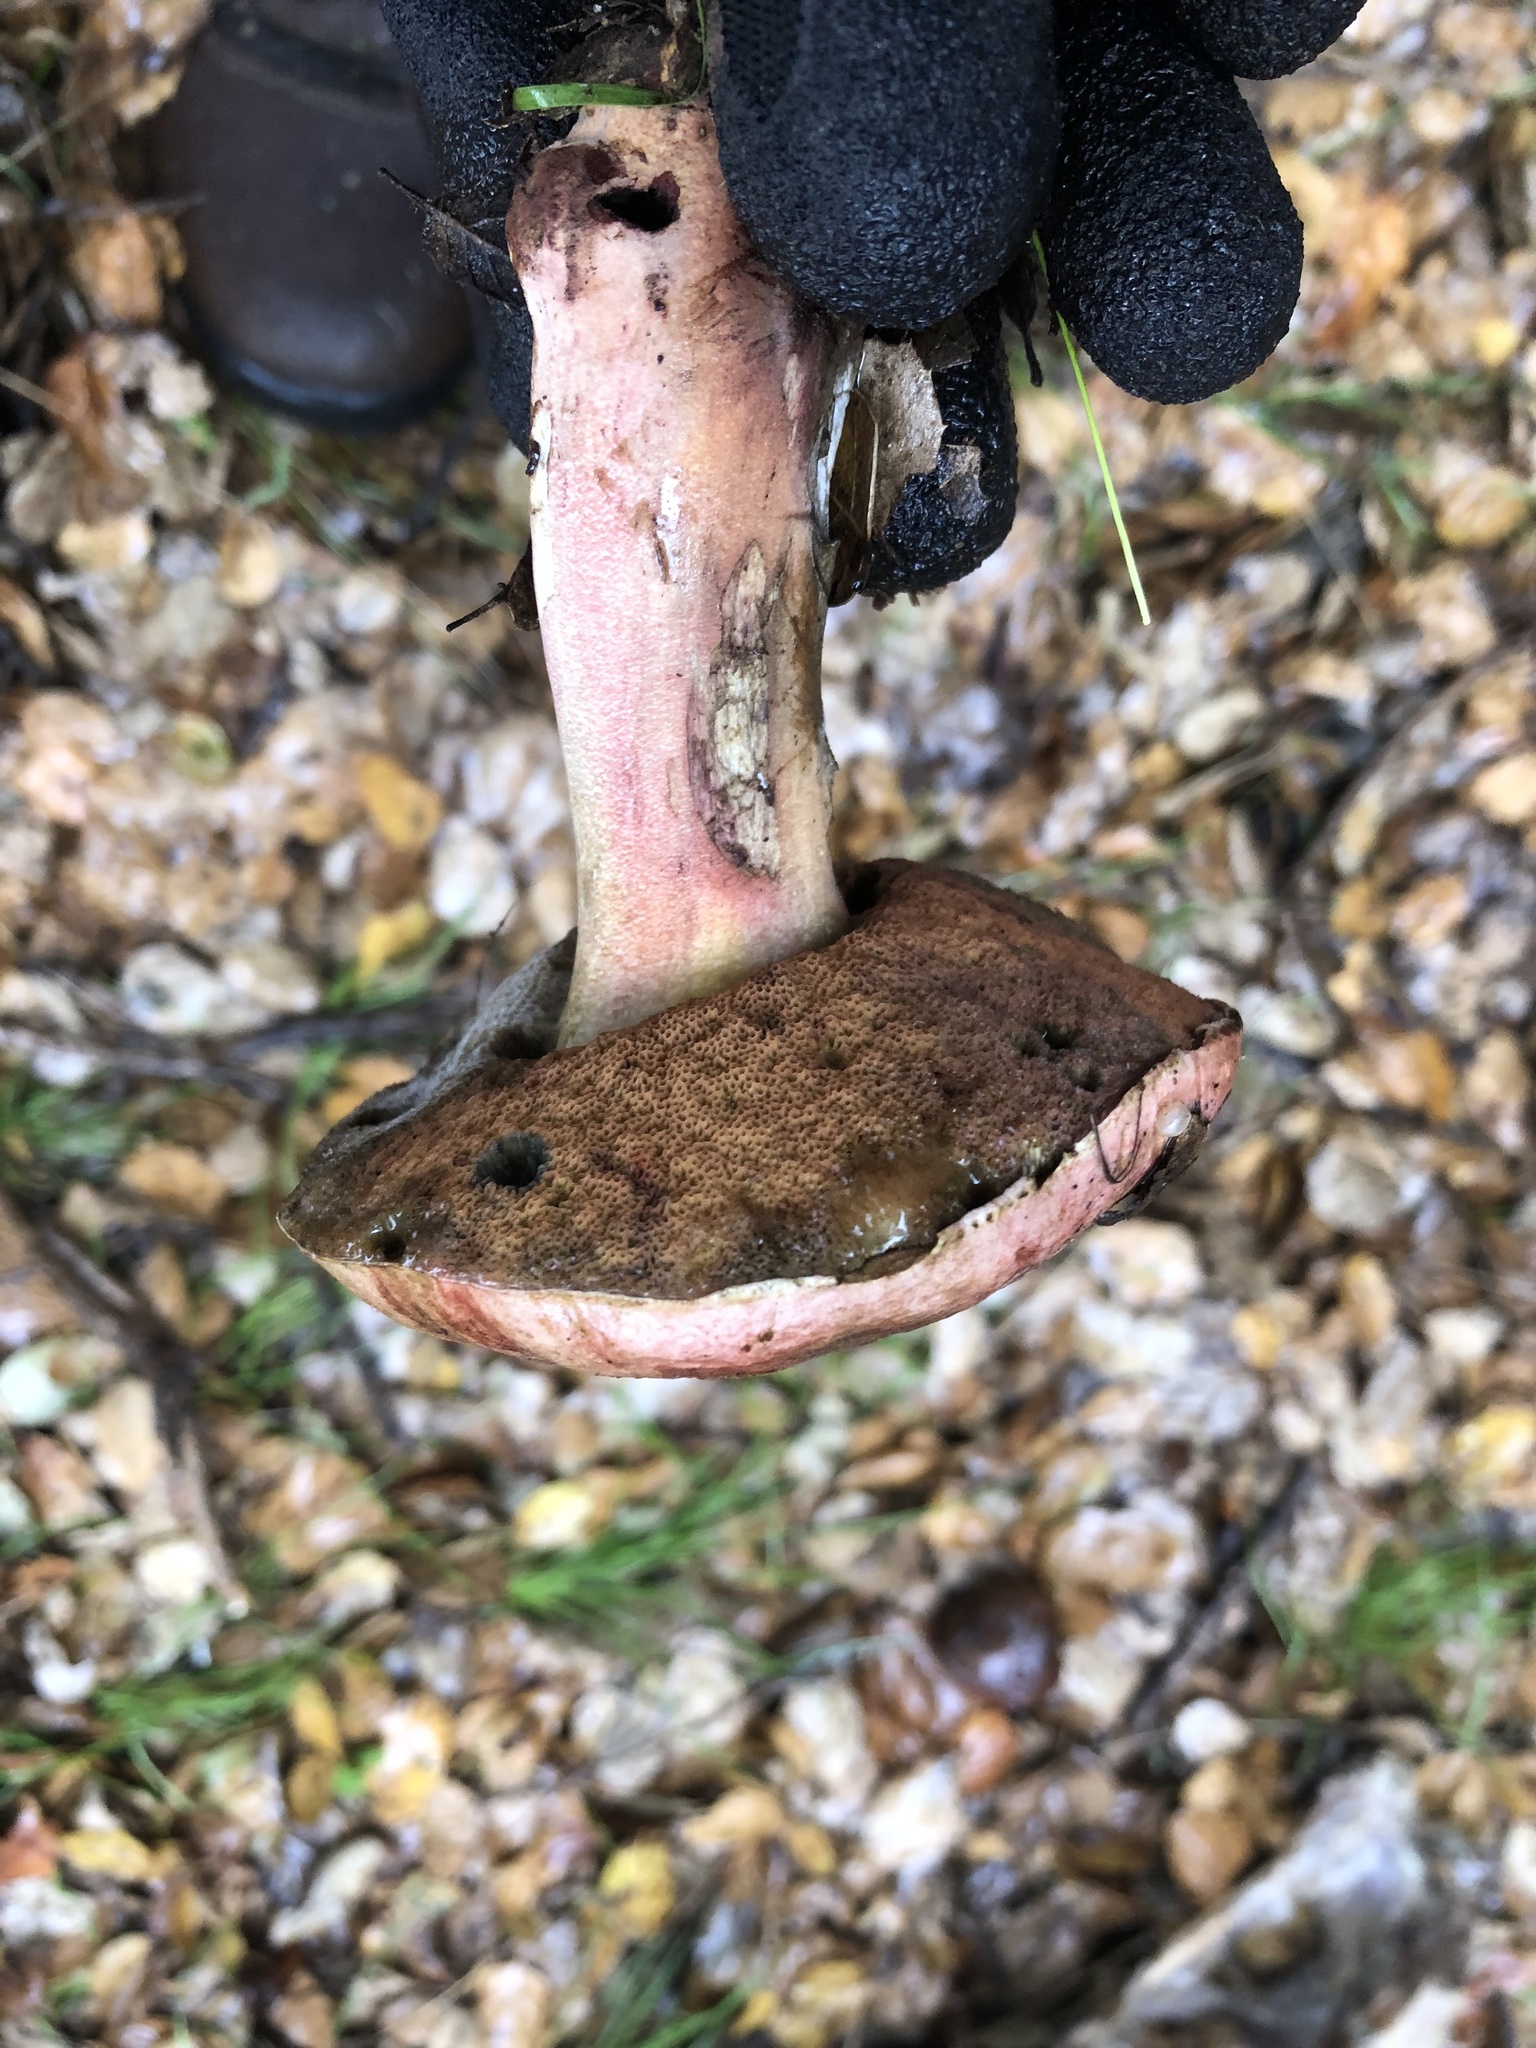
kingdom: Fungi
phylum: Basidiomycota
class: Agaricomycetes
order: Boletales
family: Boletaceae
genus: Suillellus
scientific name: Suillellus amygdalinus
